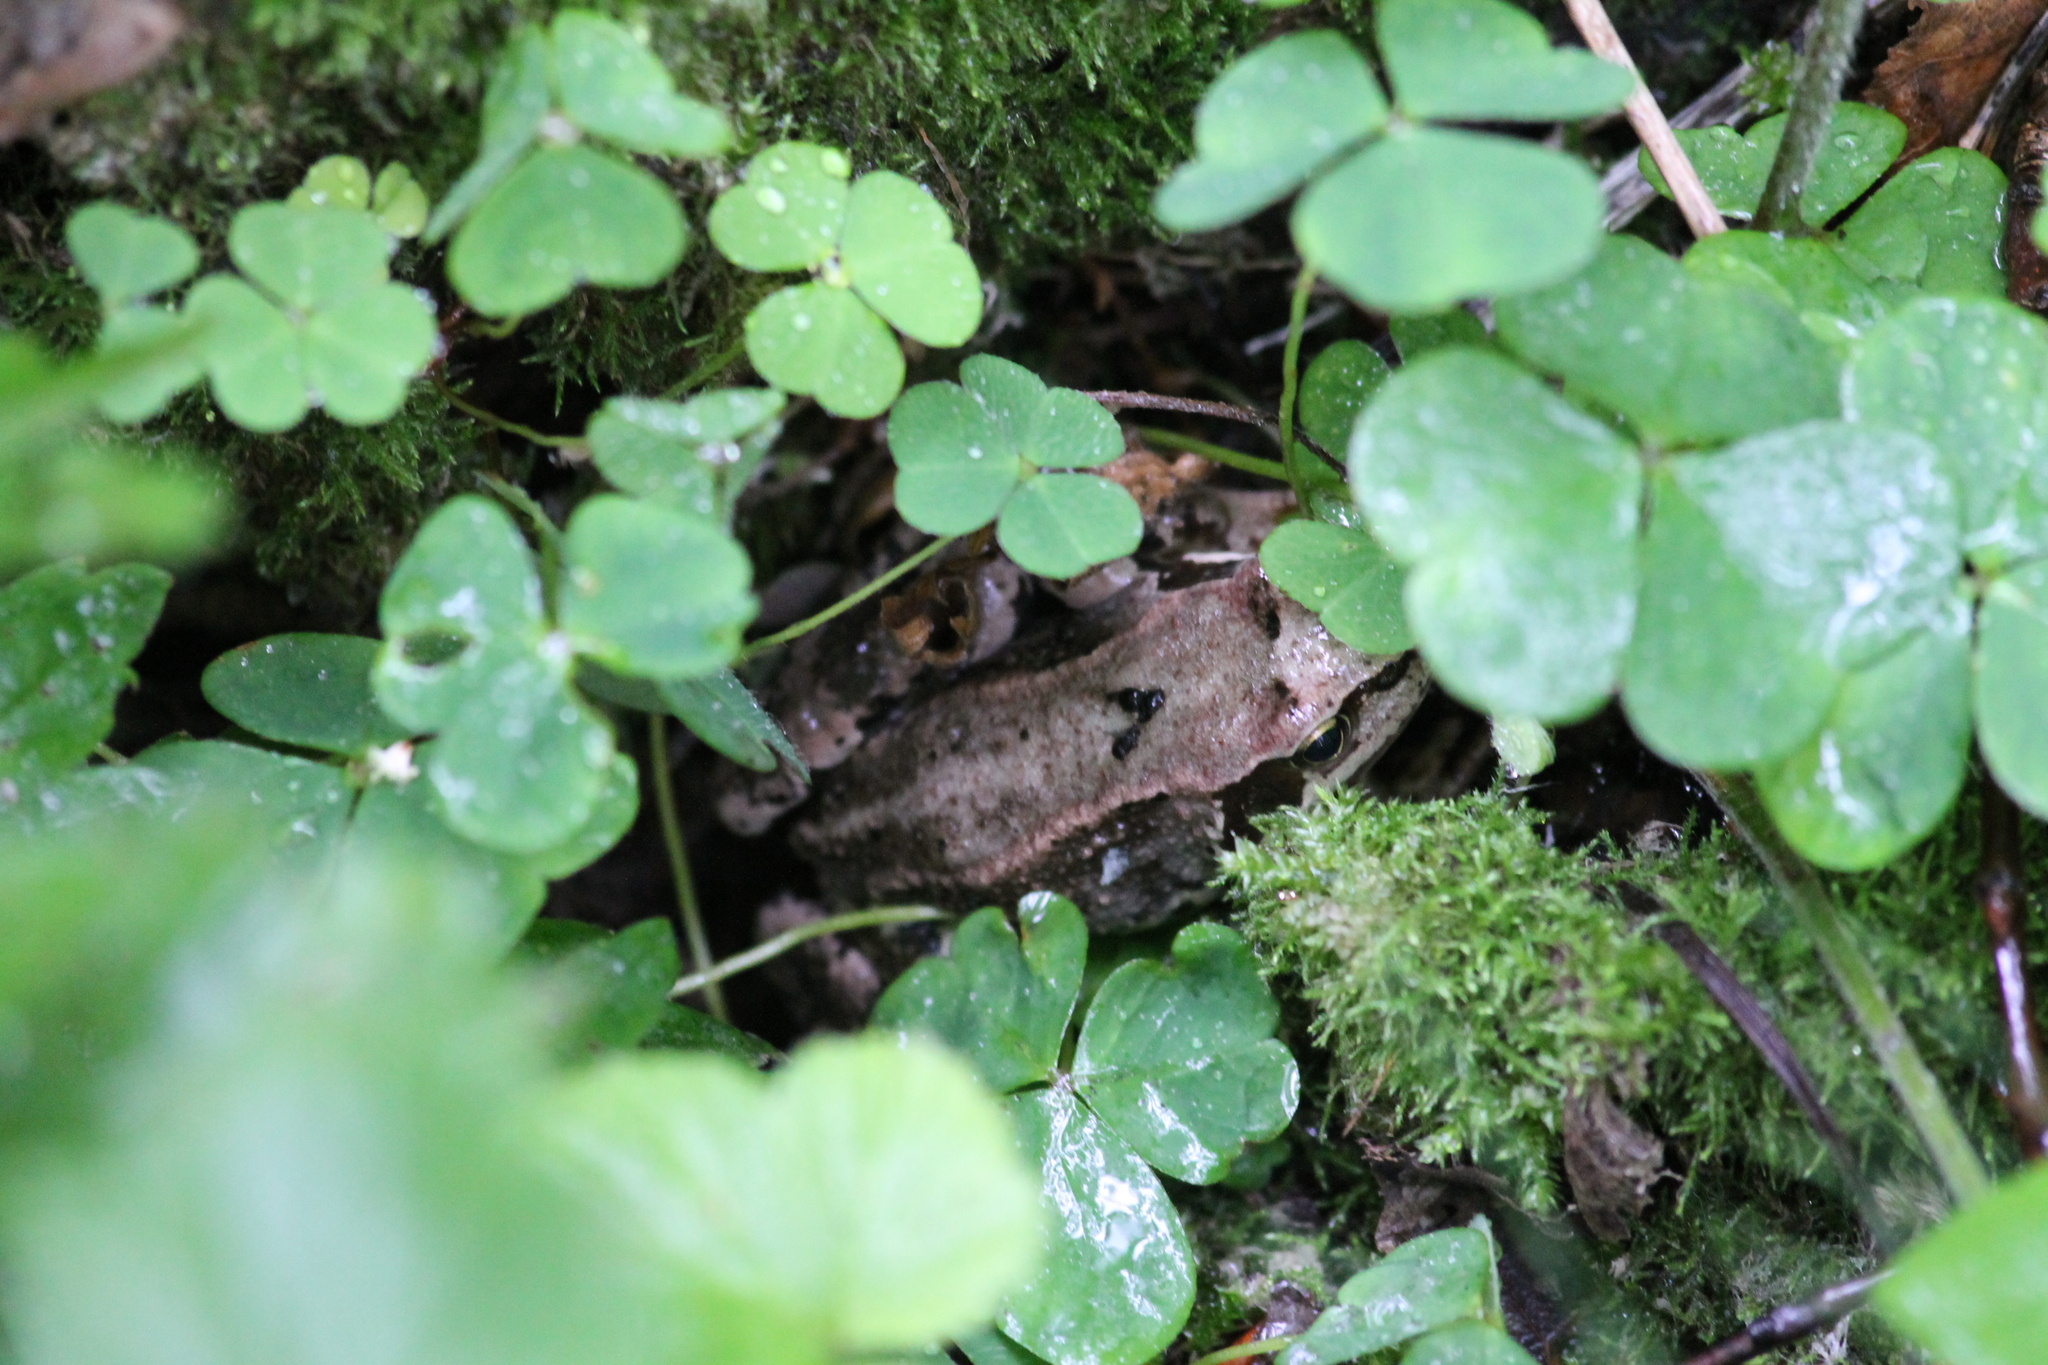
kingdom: Animalia
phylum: Chordata
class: Amphibia
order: Anura
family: Ranidae
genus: Rana
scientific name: Rana temporaria
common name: Common frog
